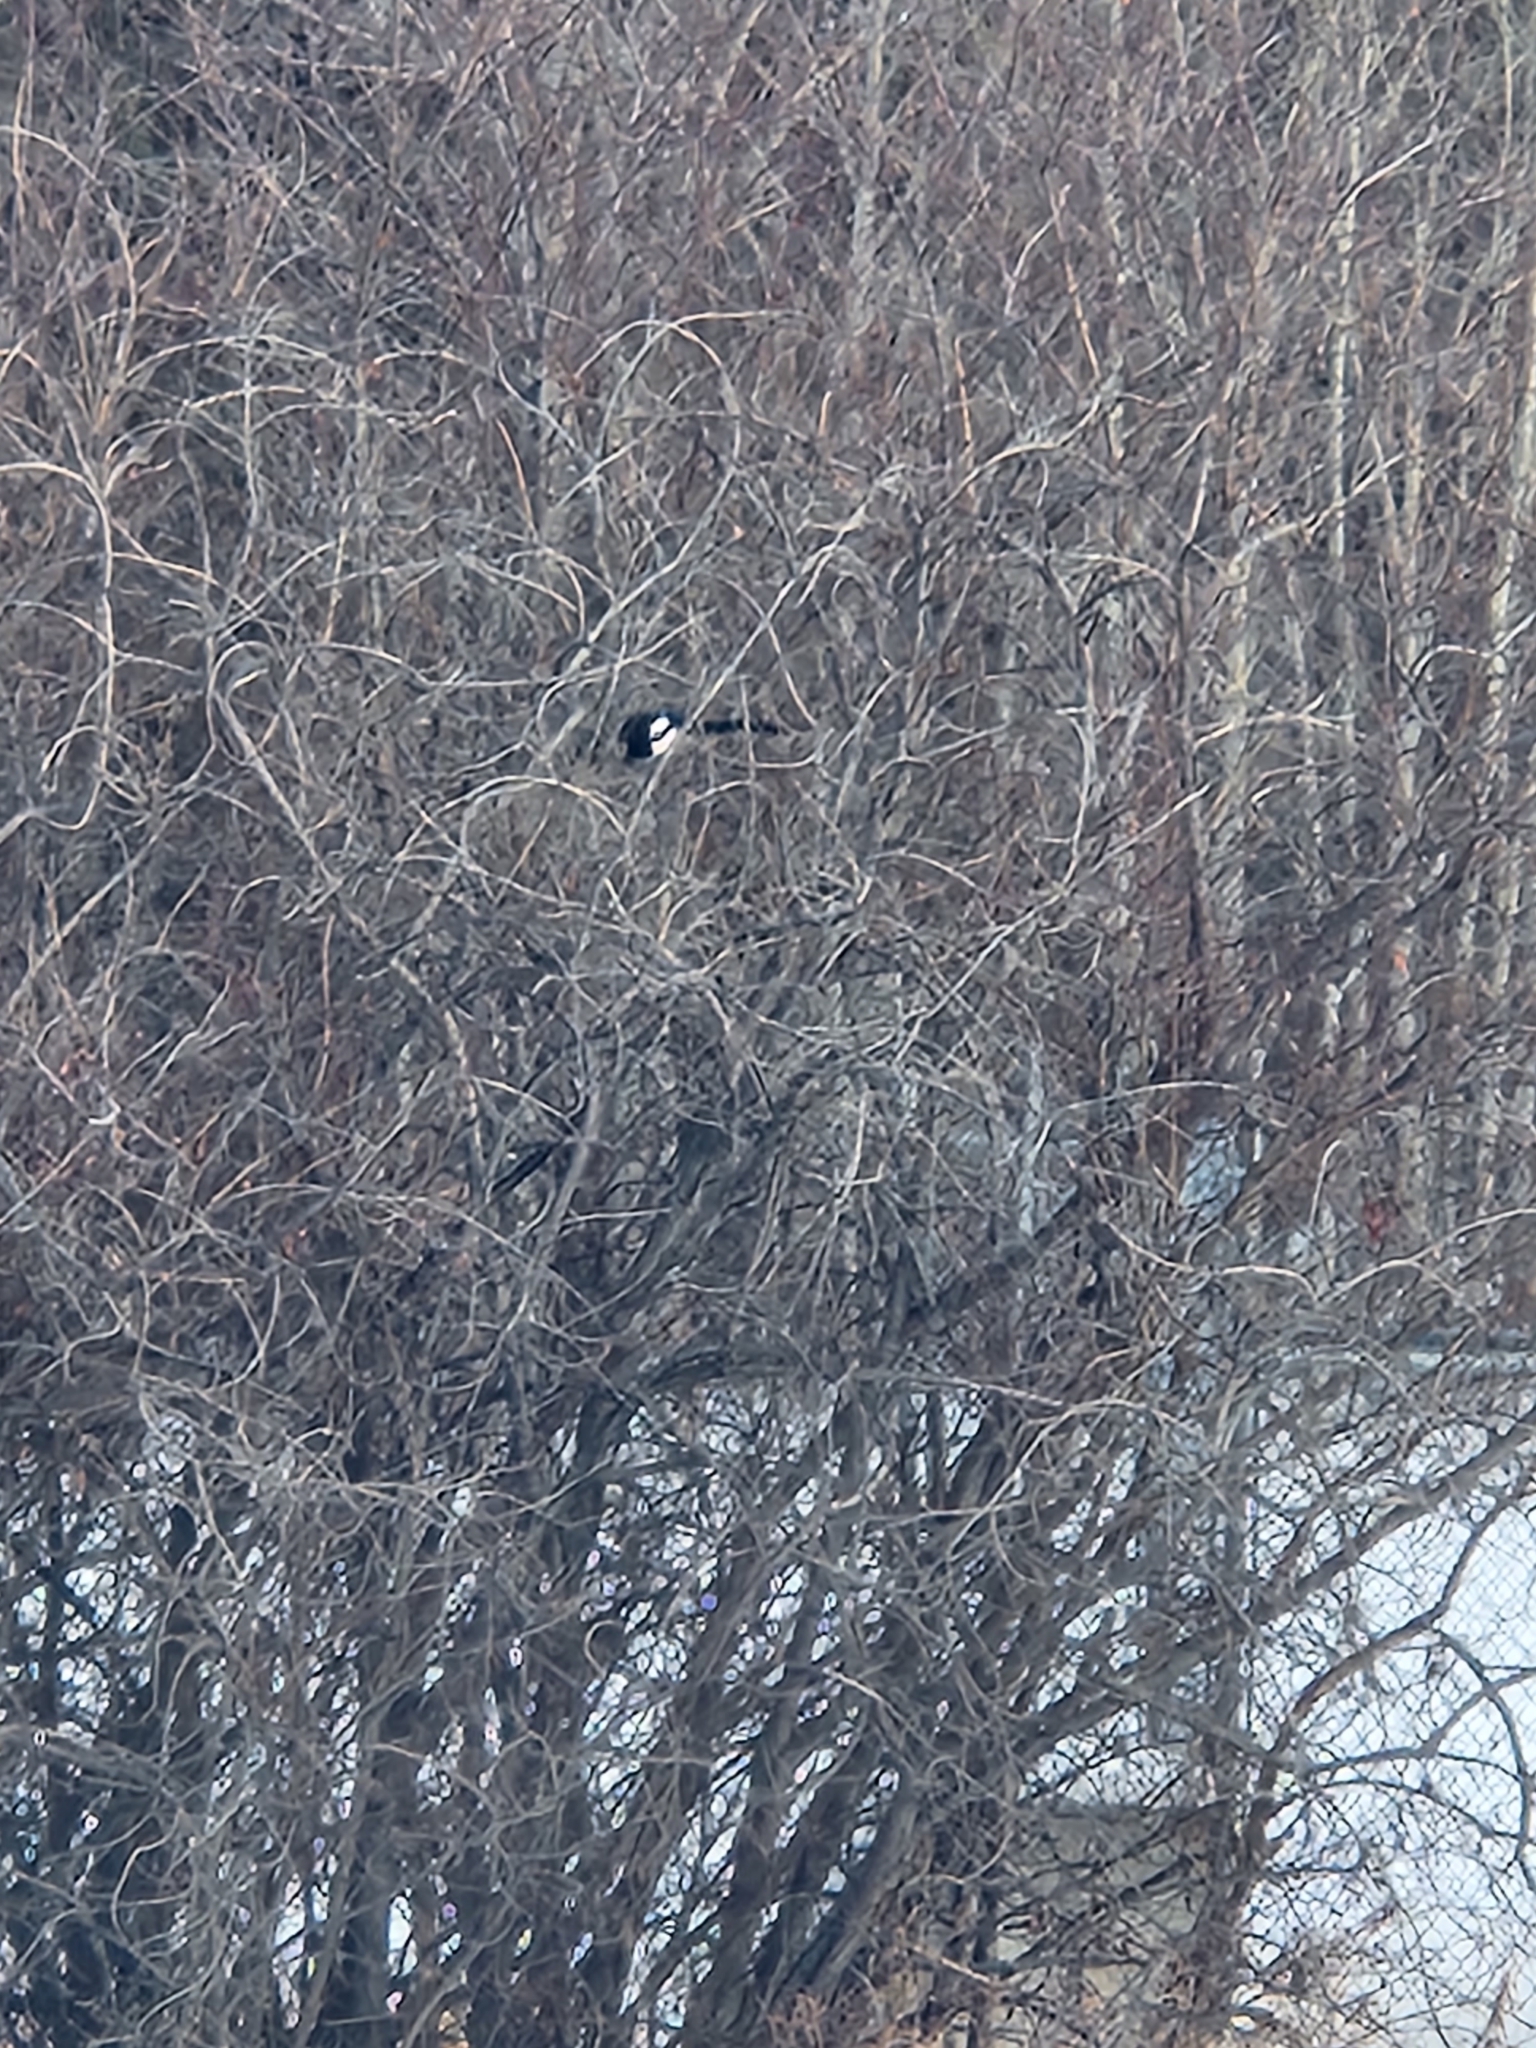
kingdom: Animalia
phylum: Chordata
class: Aves
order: Passeriformes
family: Corvidae
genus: Pica
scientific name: Pica hudsonia
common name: Black-billed magpie
